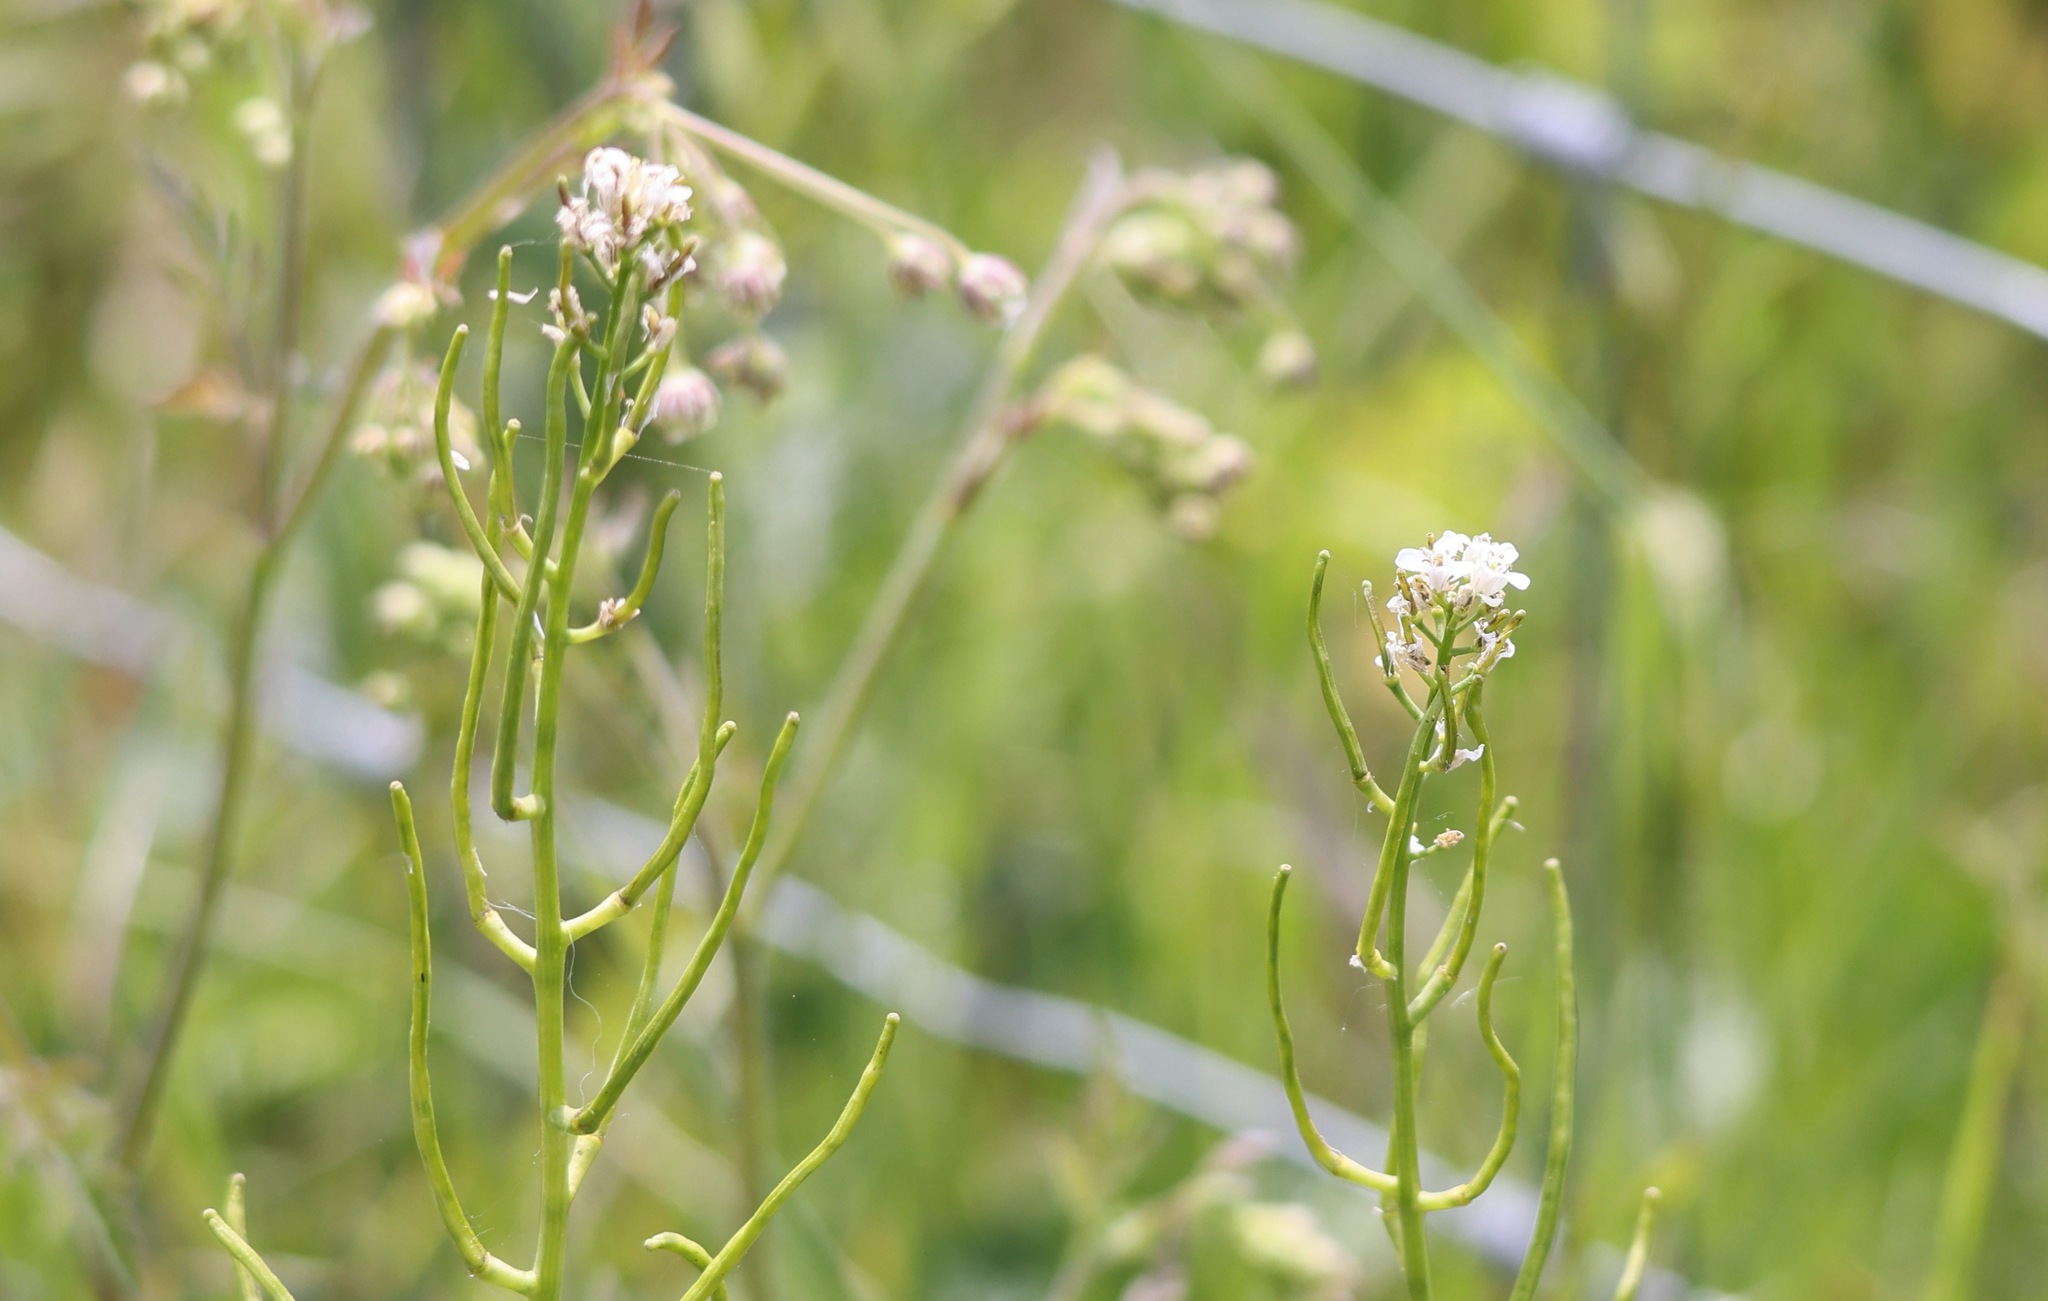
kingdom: Plantae
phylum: Tracheophyta
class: Magnoliopsida
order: Brassicales
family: Brassicaceae
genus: Alliaria
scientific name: Alliaria petiolata
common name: Garlic mustard
